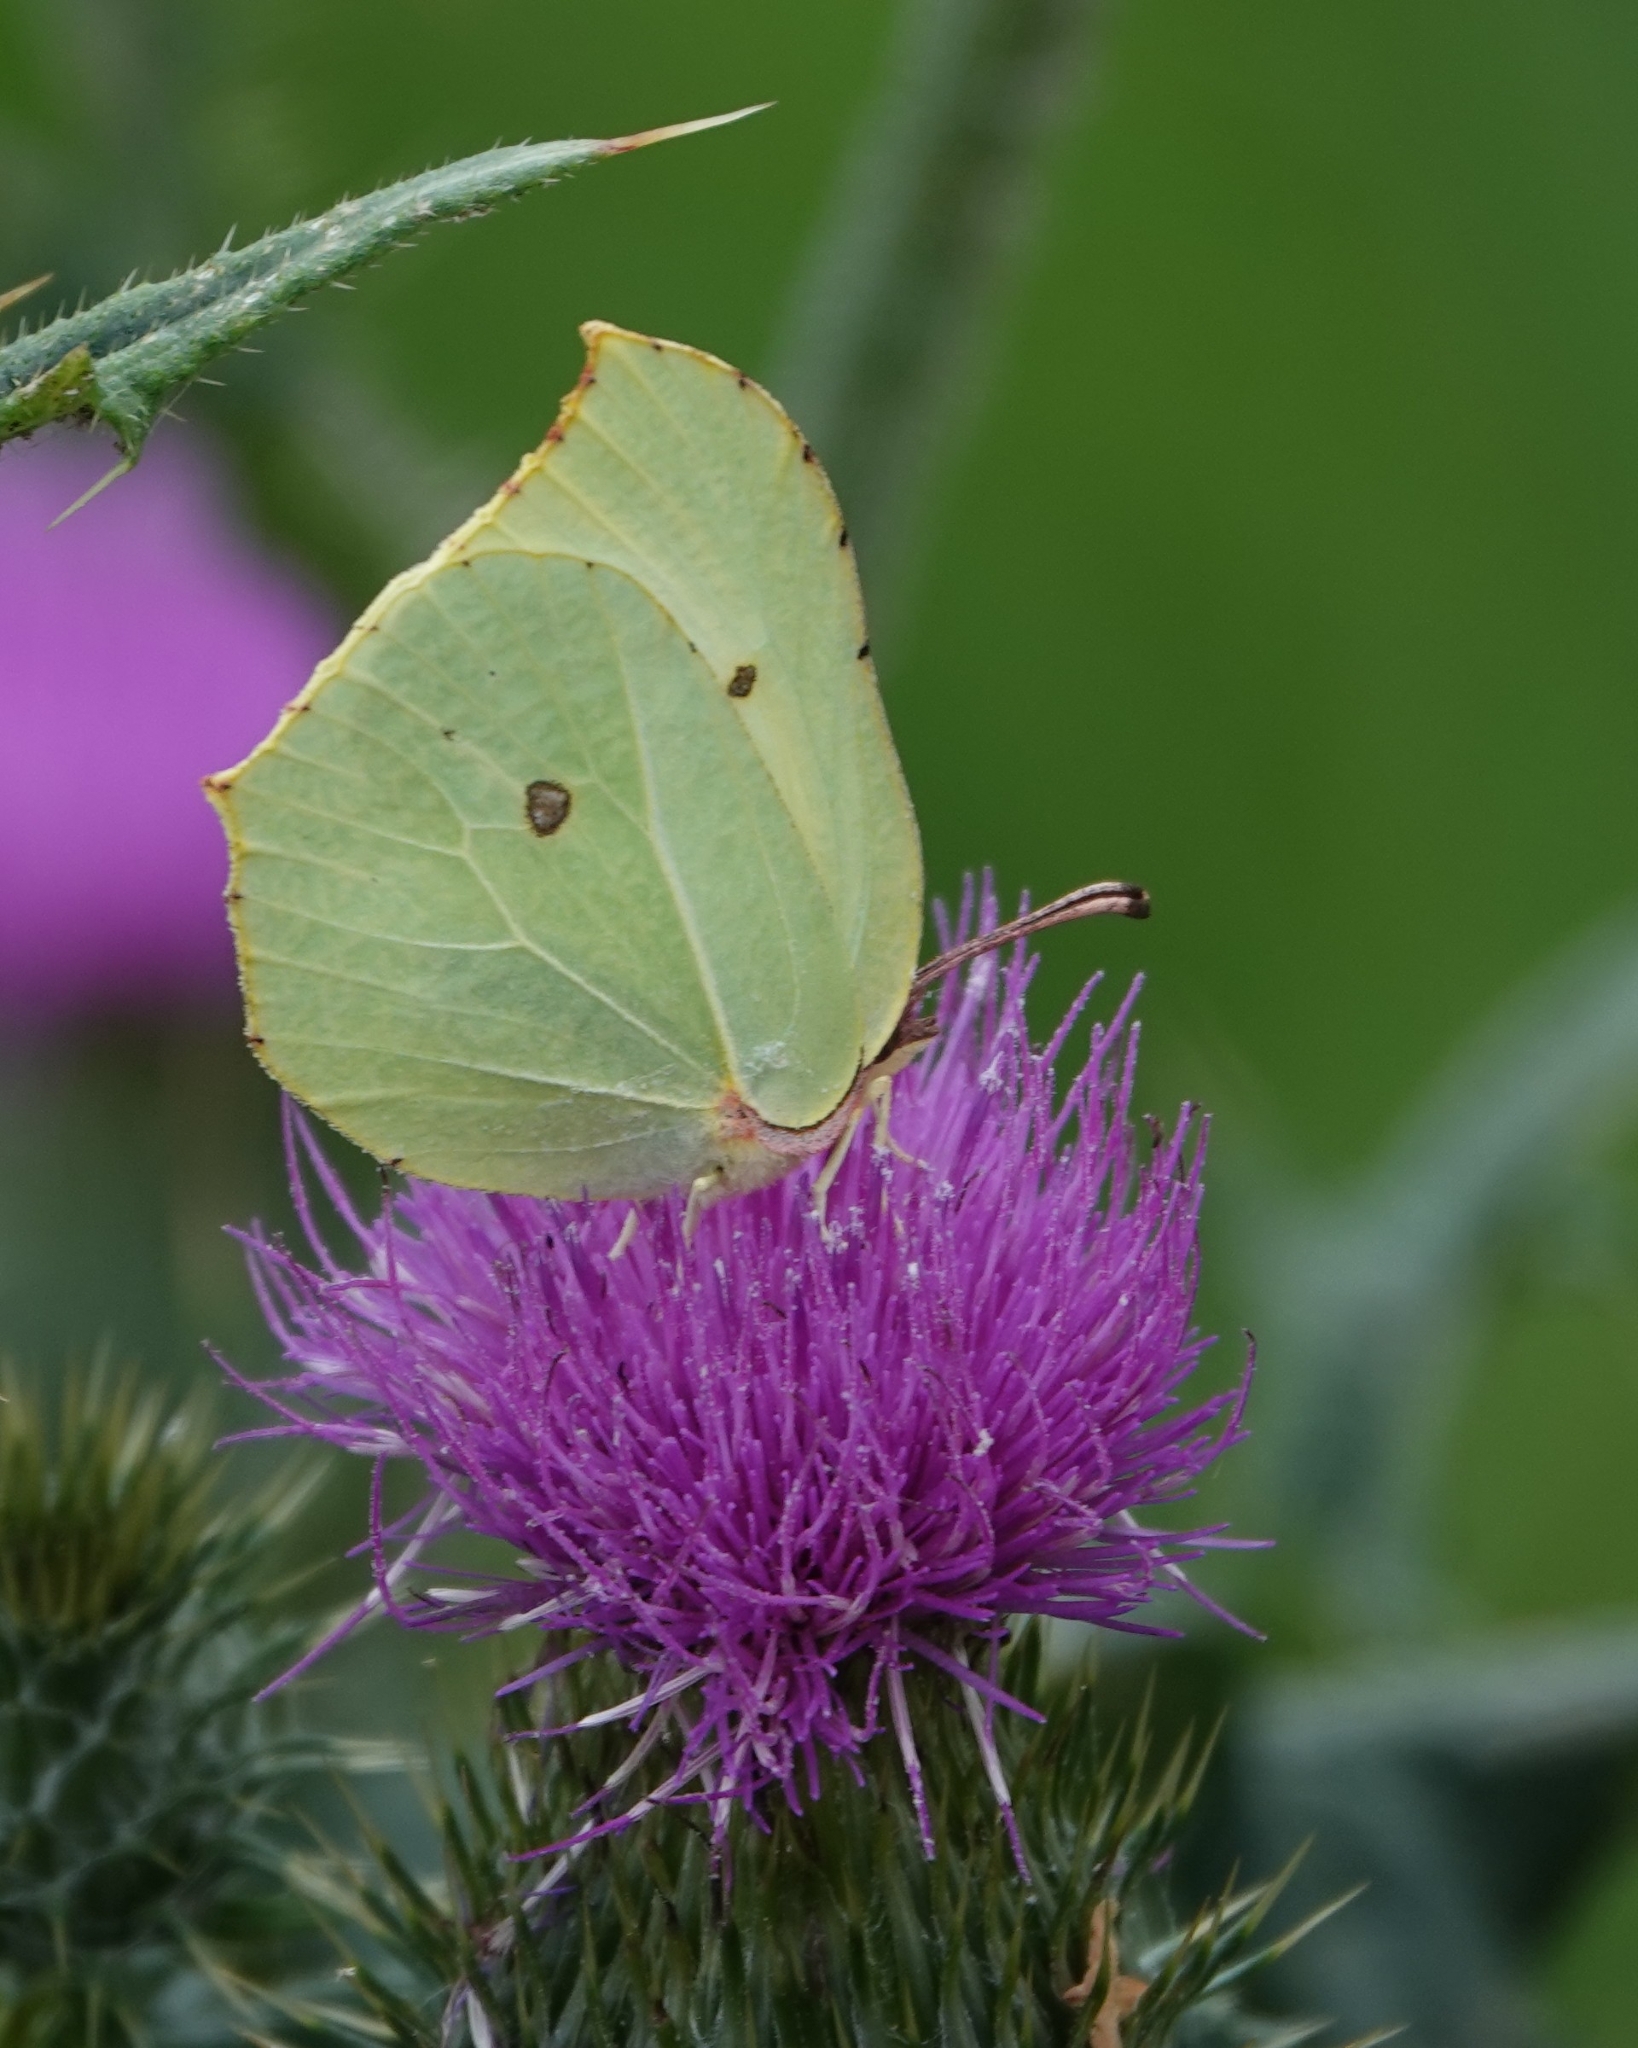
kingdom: Animalia
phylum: Arthropoda
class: Insecta
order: Lepidoptera
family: Pieridae
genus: Gonepteryx
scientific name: Gonepteryx rhamni
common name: Brimstone
